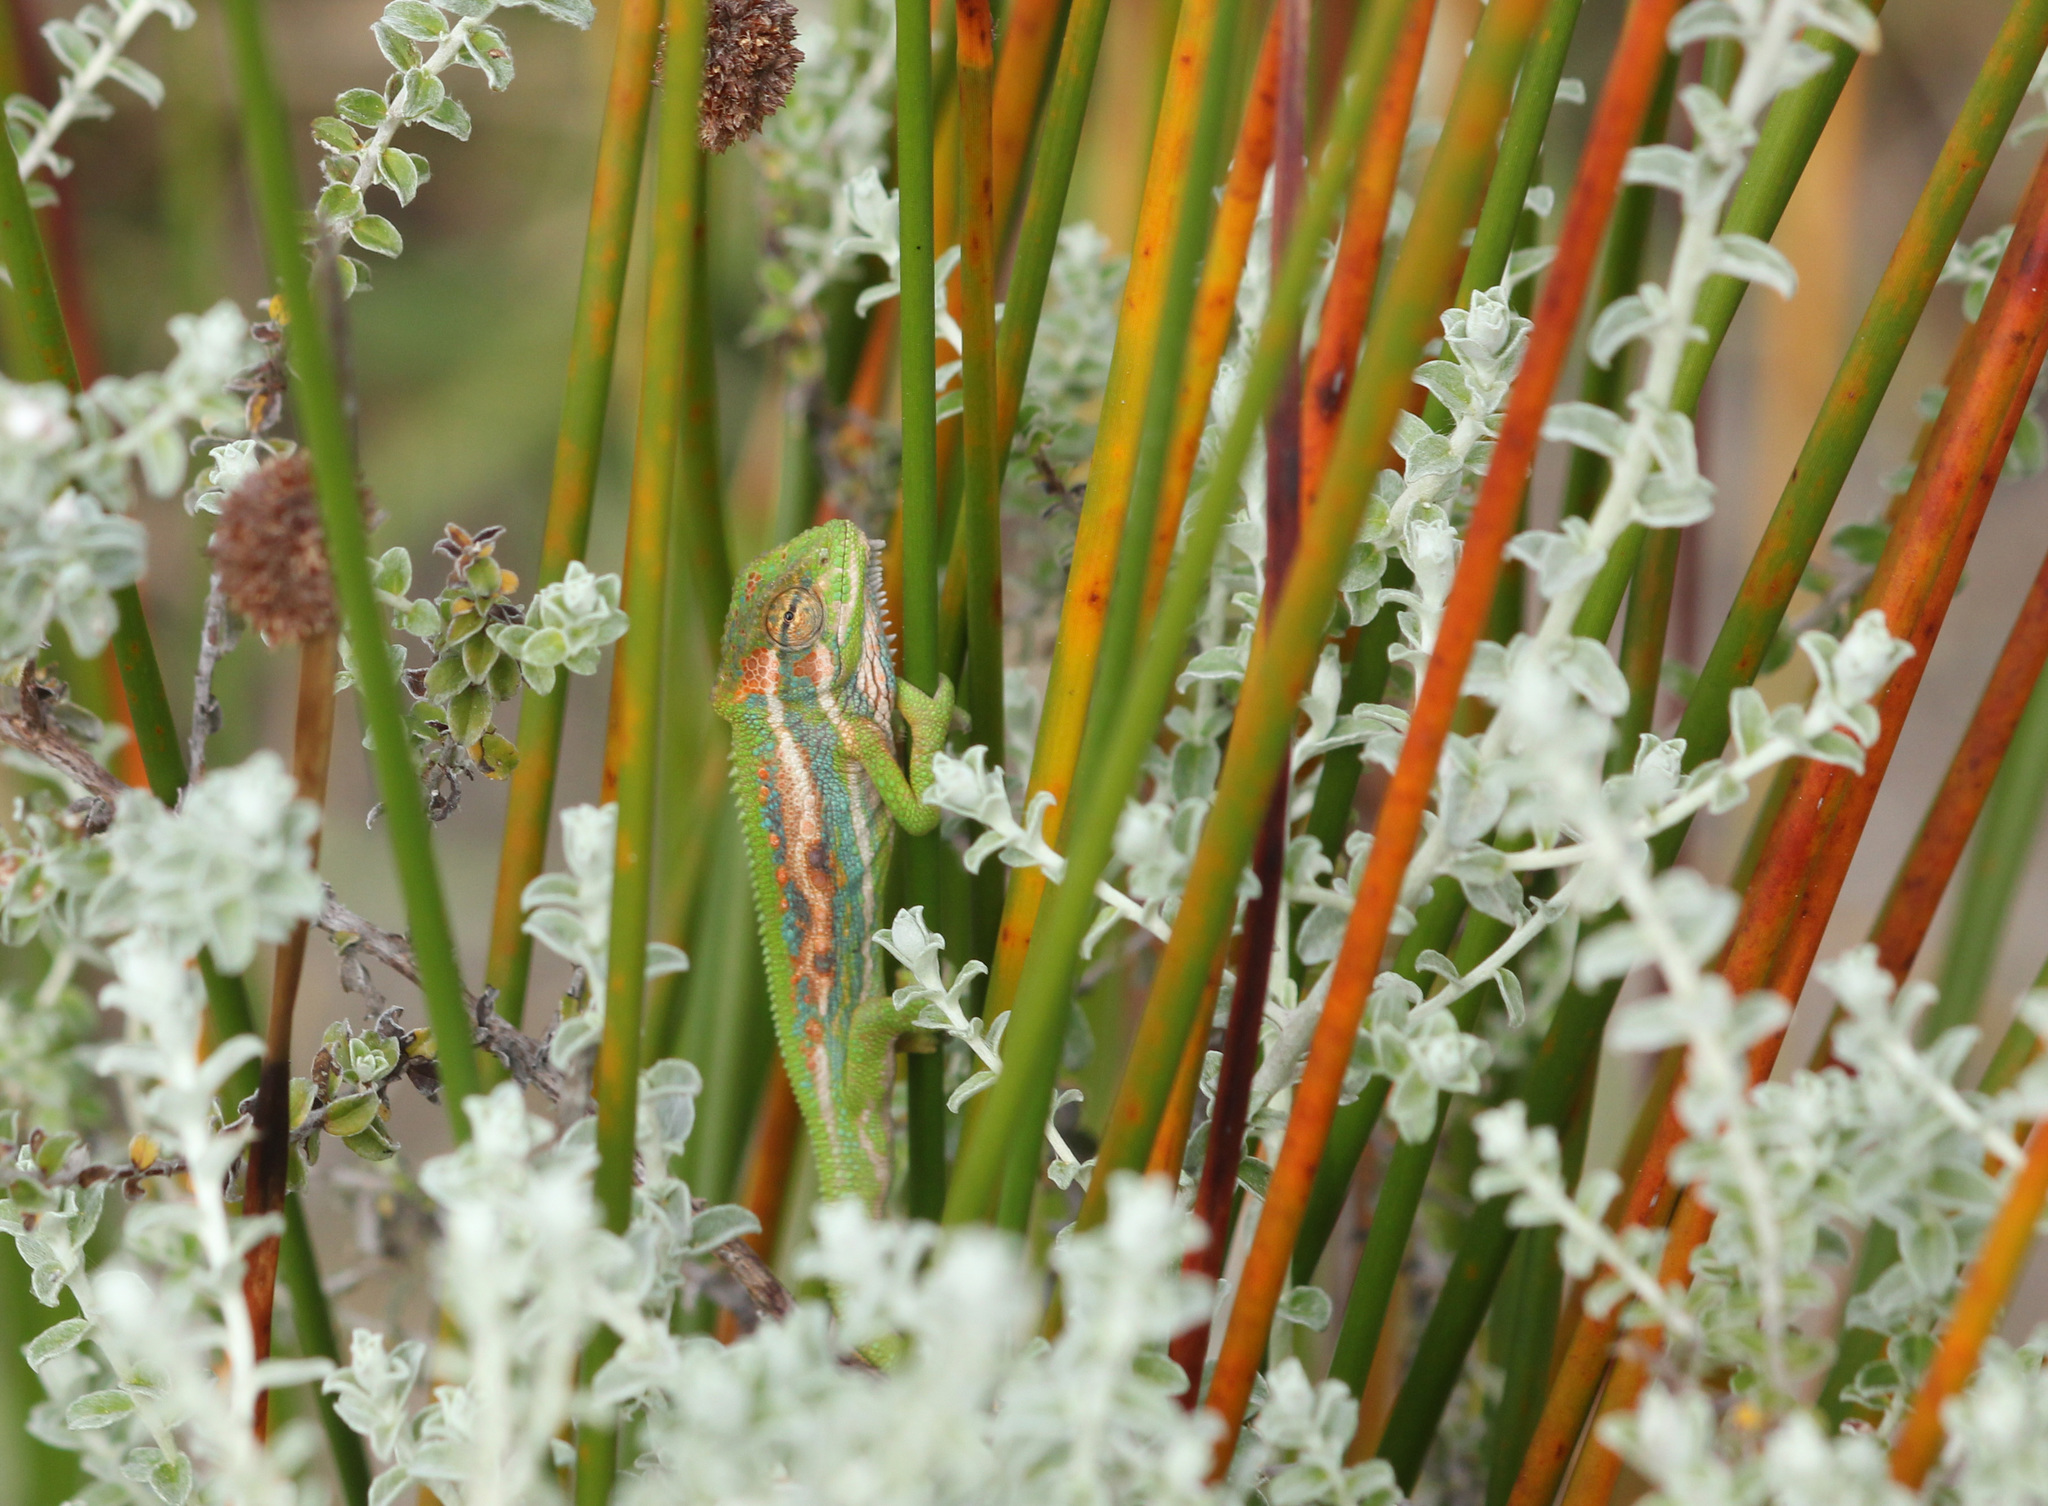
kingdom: Animalia
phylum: Chordata
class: Squamata
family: Chamaeleonidae
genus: Bradypodion
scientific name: Bradypodion pumilum
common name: Cape dwarf chameleon
